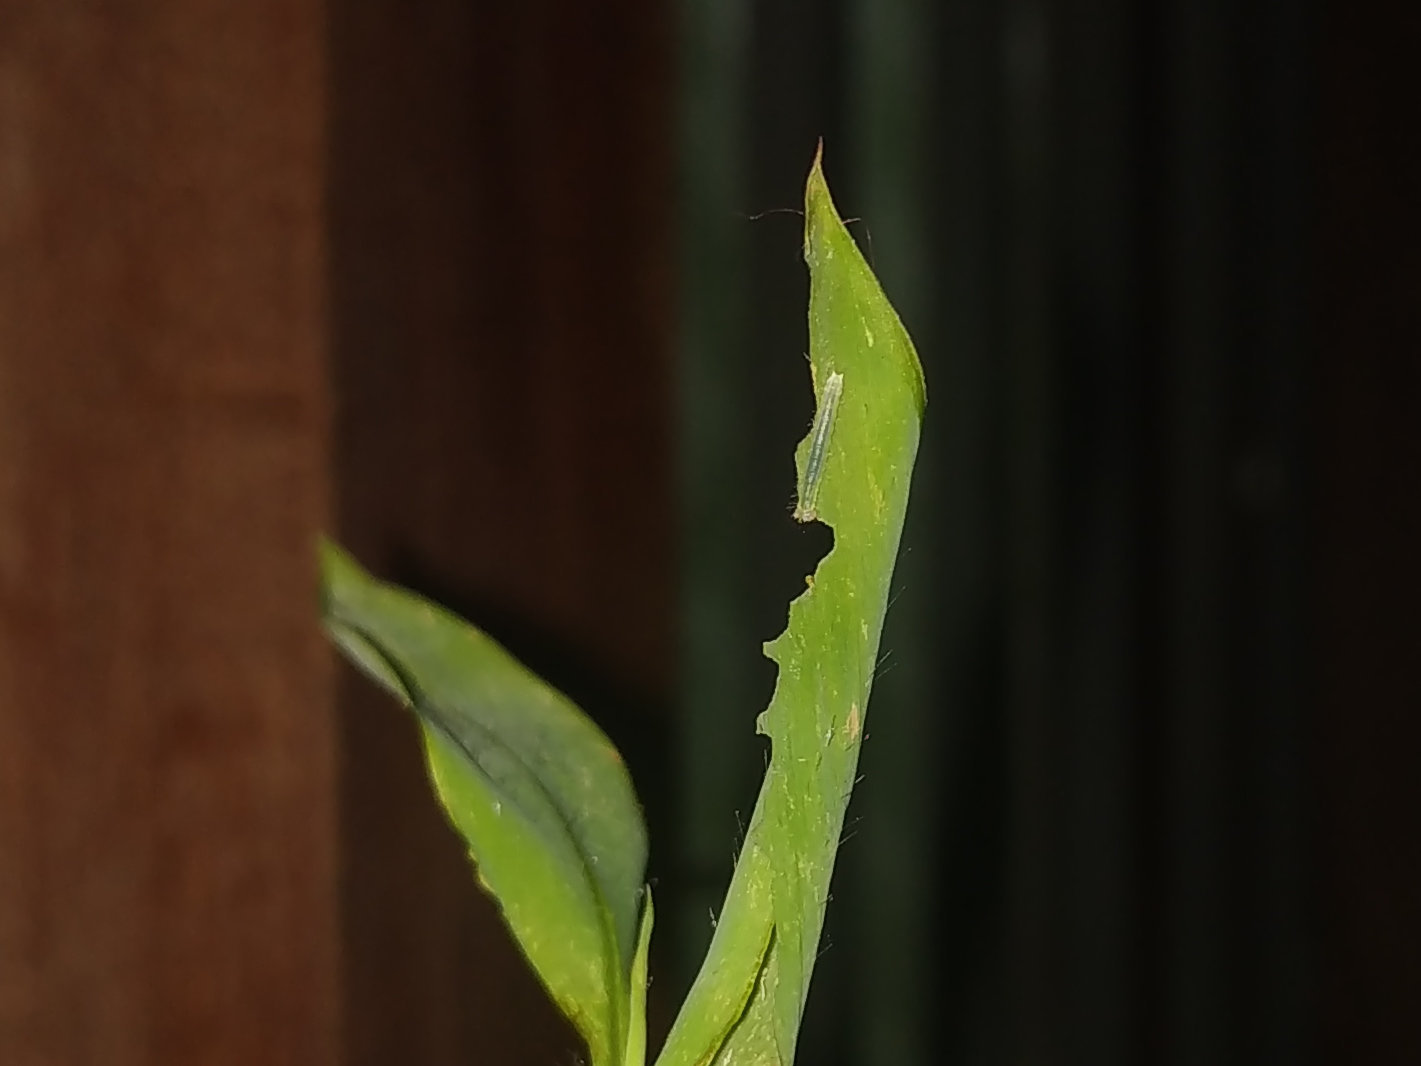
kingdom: Animalia
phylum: Arthropoda
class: Insecta
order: Lepidoptera
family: Nymphalidae
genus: Orsotriaena
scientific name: Orsotriaena medus
